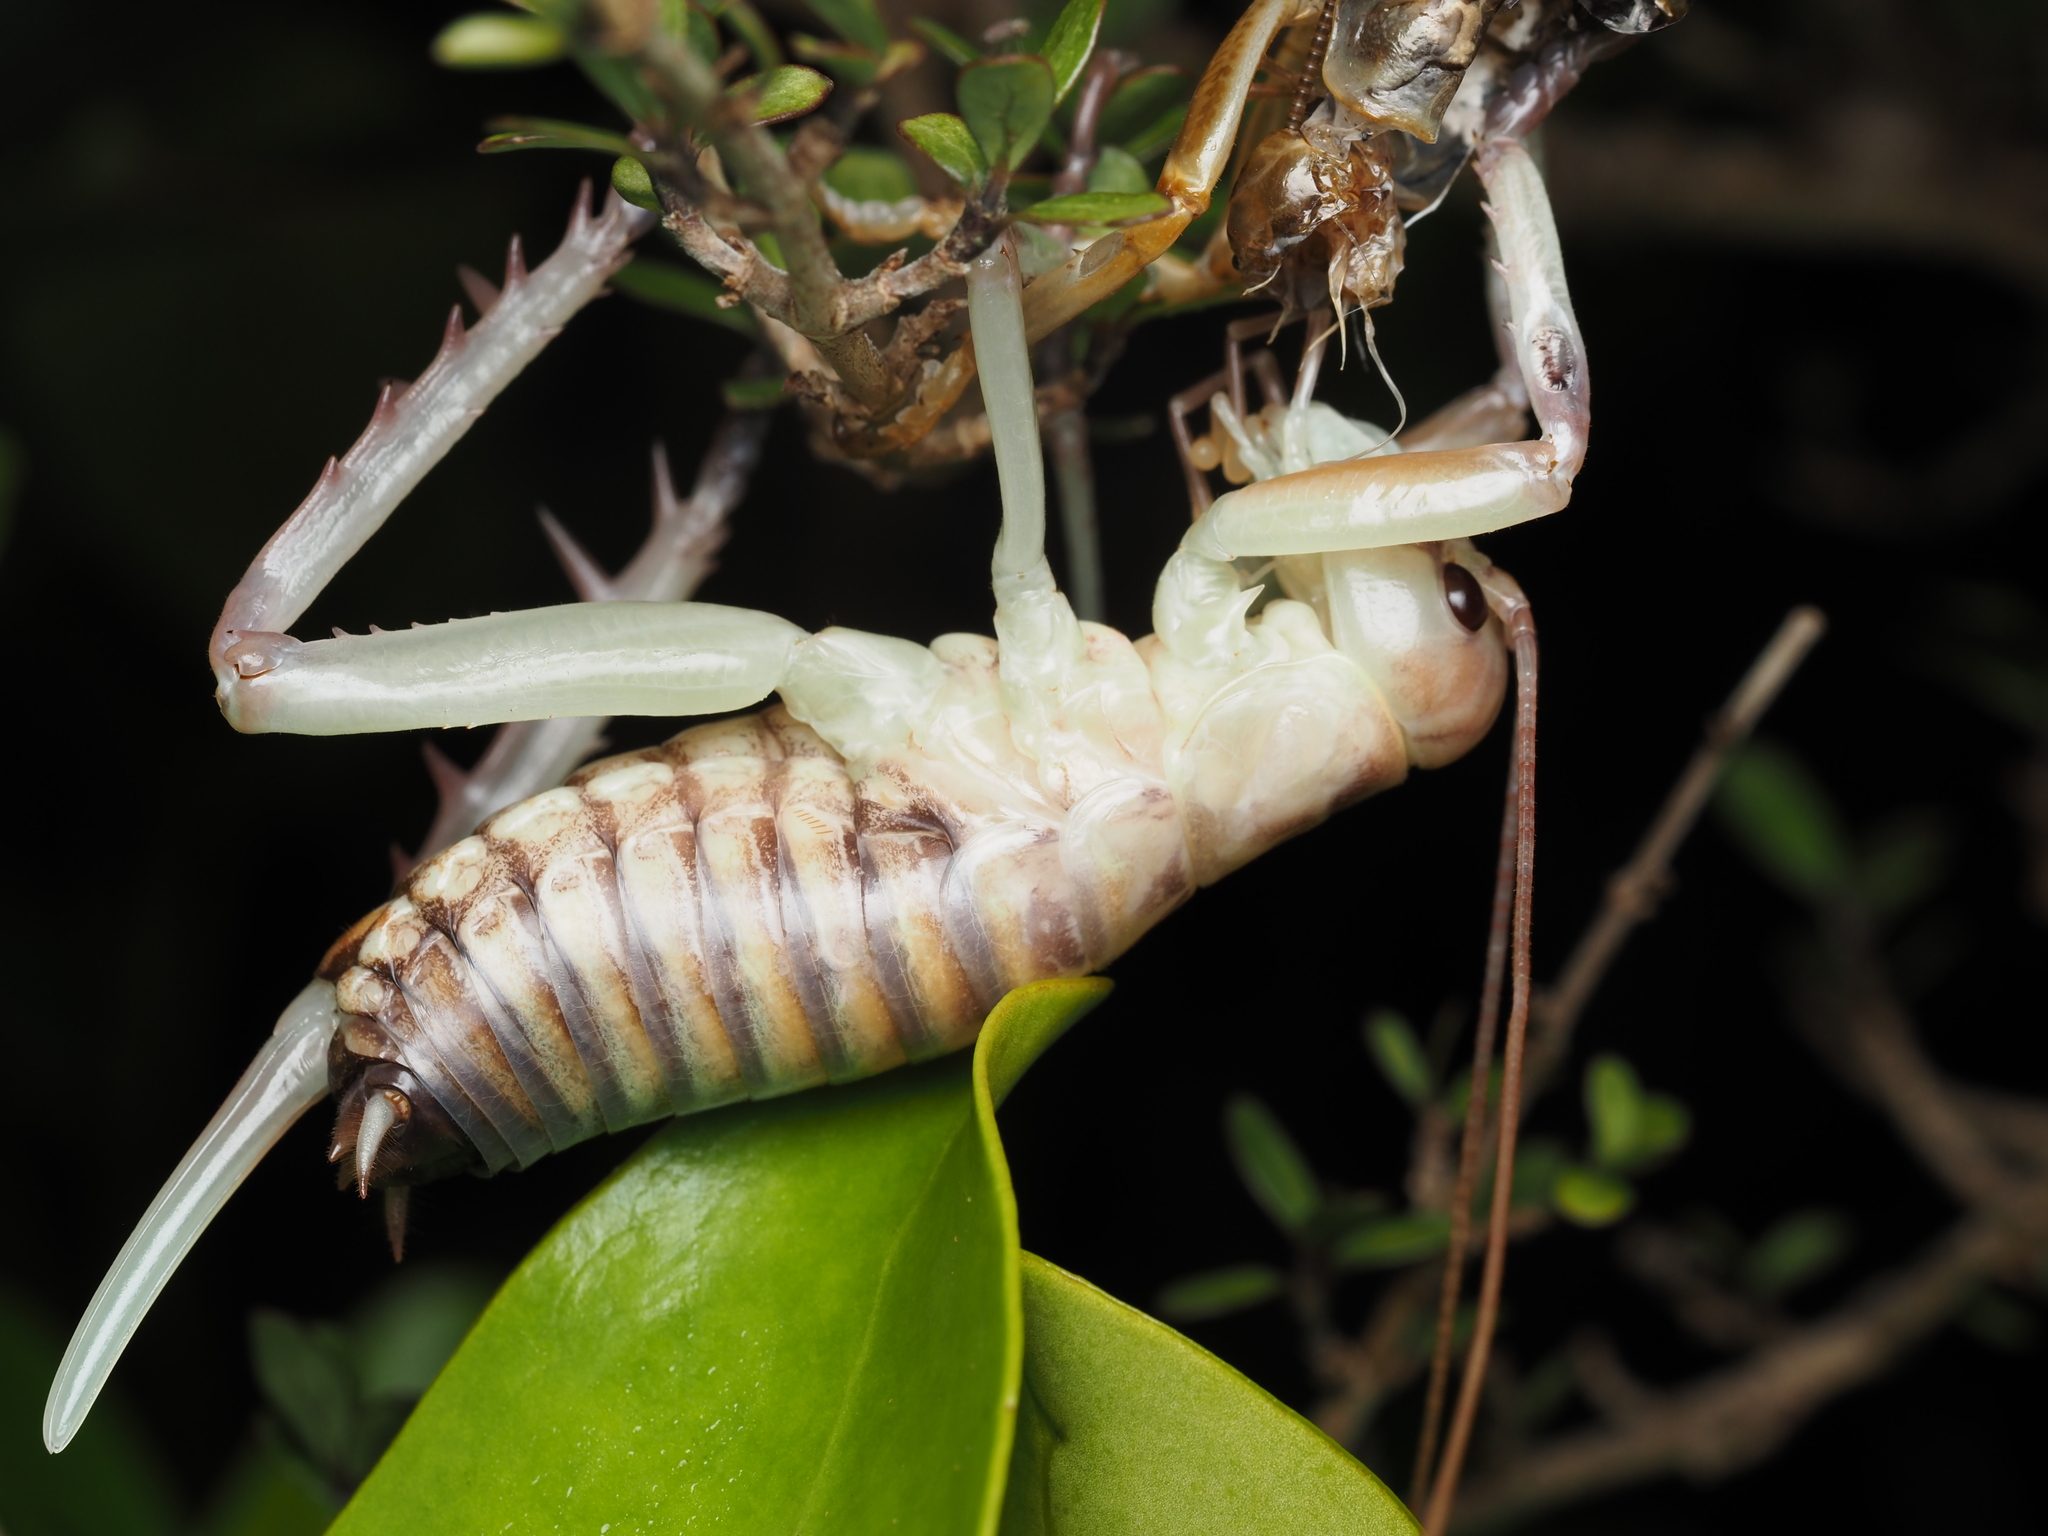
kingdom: Animalia
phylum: Arthropoda
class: Insecta
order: Orthoptera
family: Anostostomatidae
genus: Hemideina
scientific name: Hemideina crassidens
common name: Wellington tree weta
